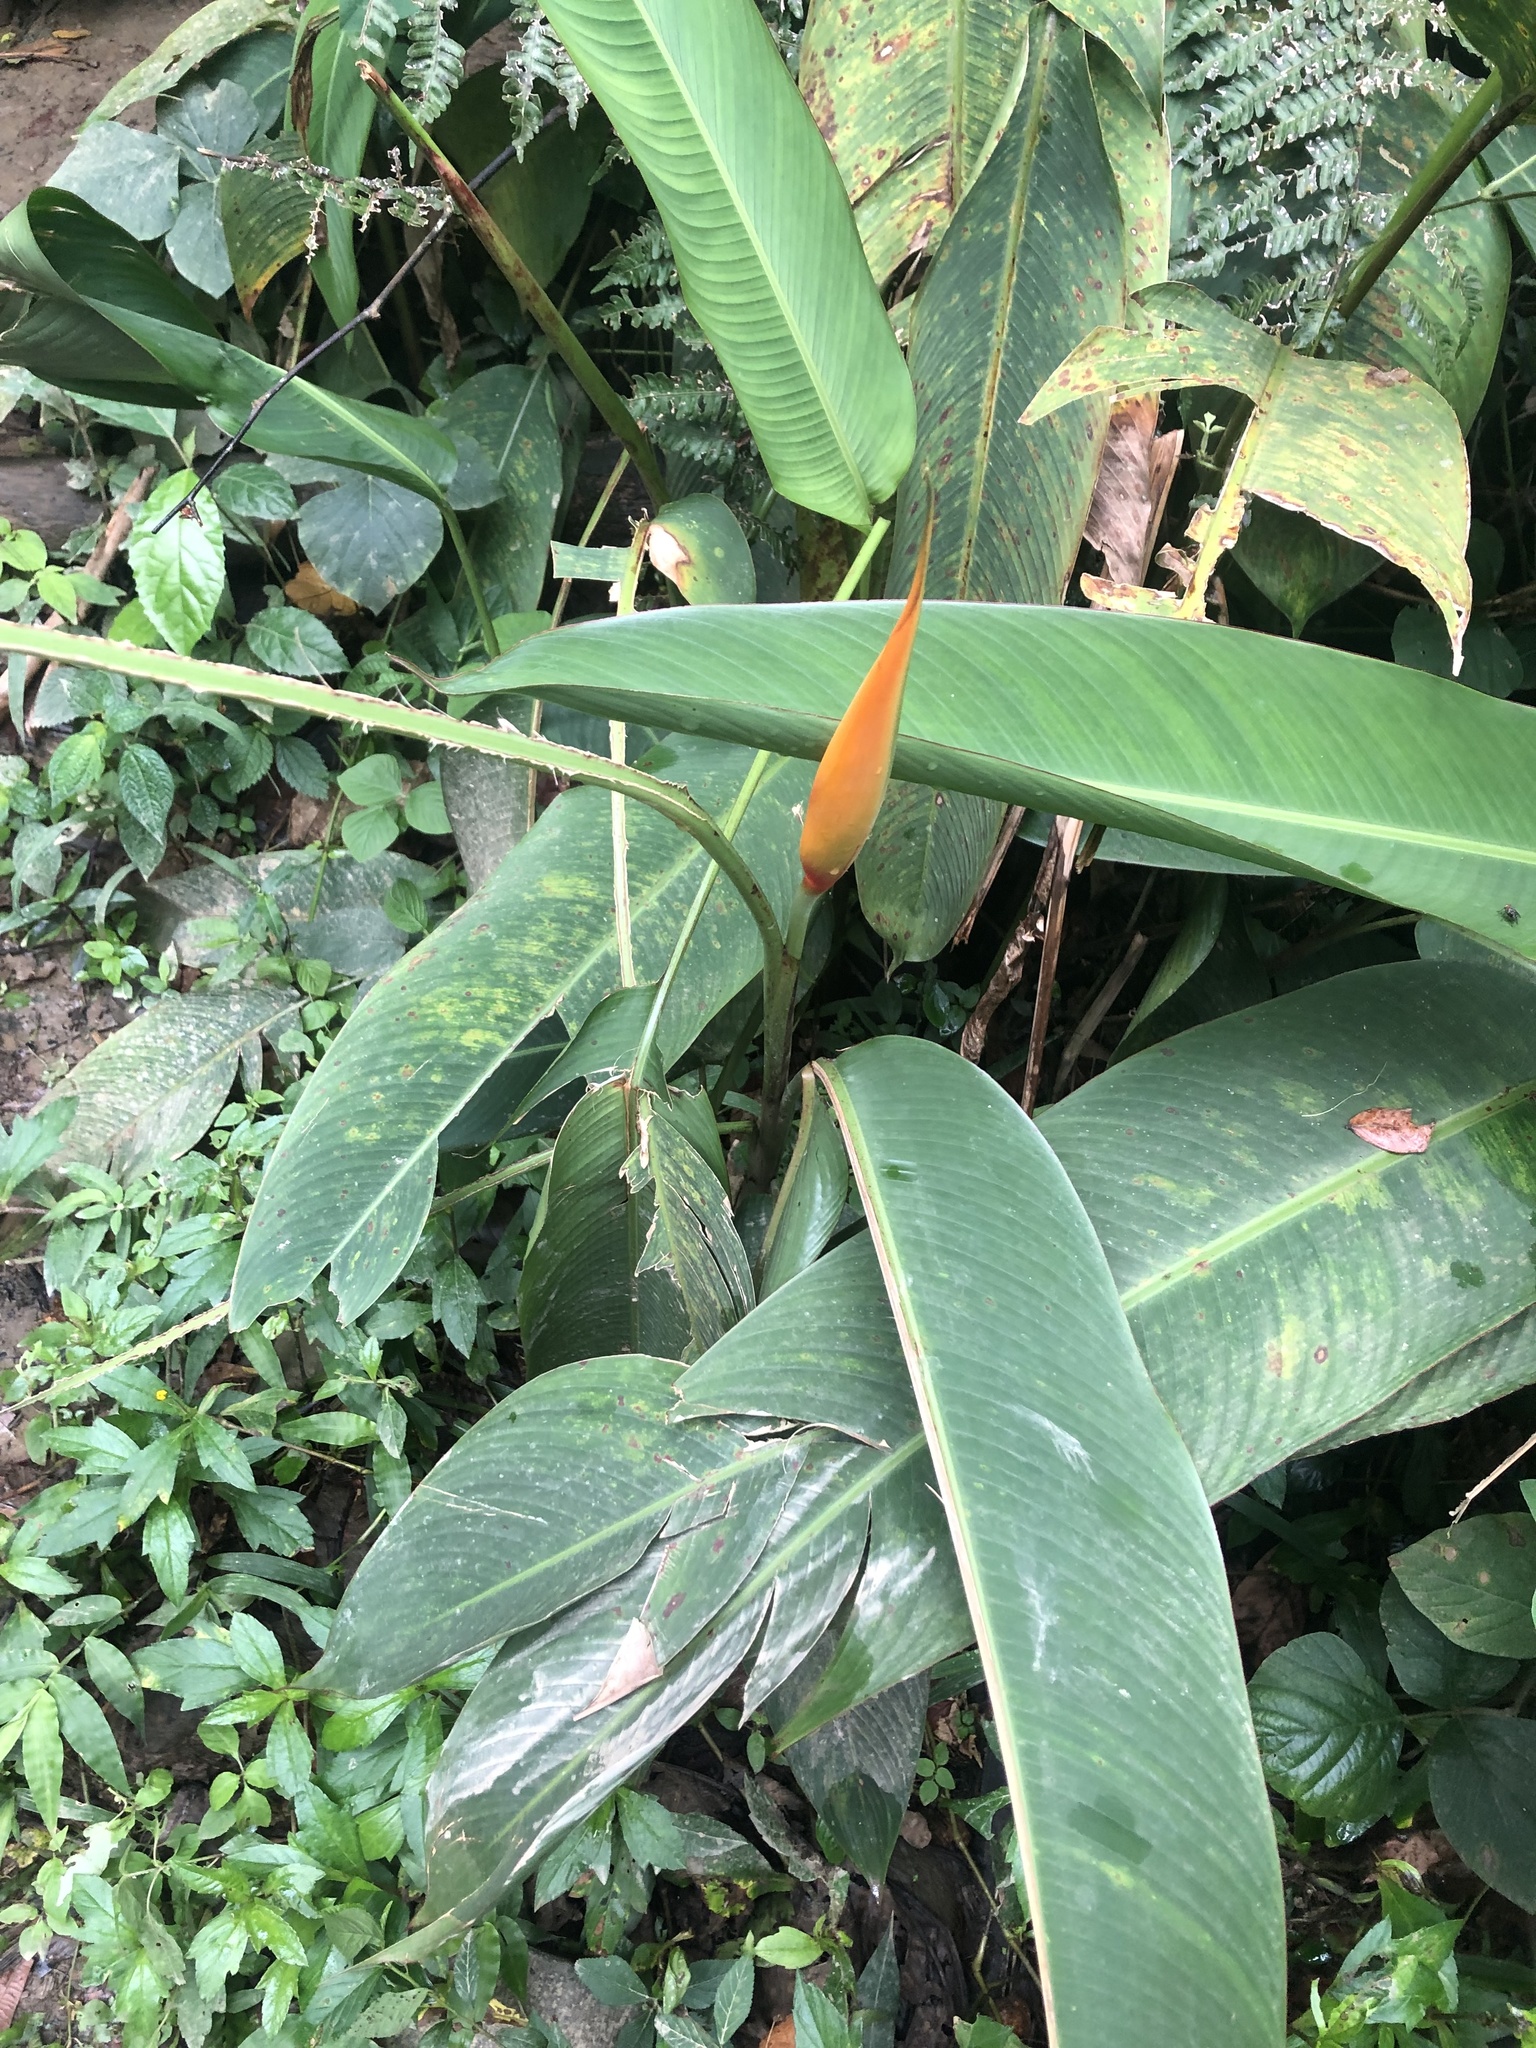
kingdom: Plantae
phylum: Tracheophyta
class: Liliopsida
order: Zingiberales
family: Heliconiaceae
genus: Heliconia
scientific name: Heliconia psittacorum
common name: Parrot's-flower
